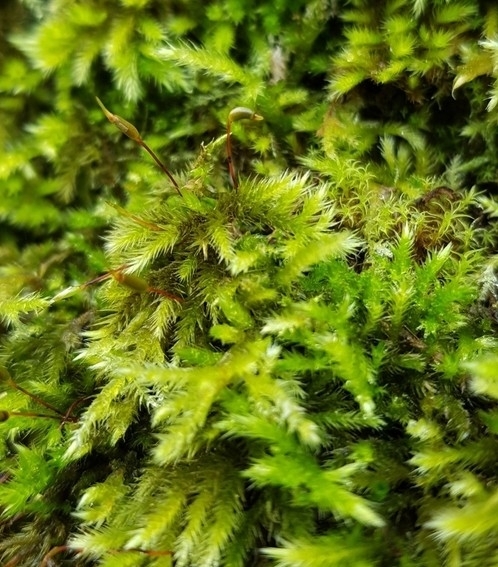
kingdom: Plantae
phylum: Bryophyta
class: Bryopsida
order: Hypnales
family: Brachytheciaceae
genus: Homalothecium
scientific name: Homalothecium sericeum
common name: Silky wall feather-moss
